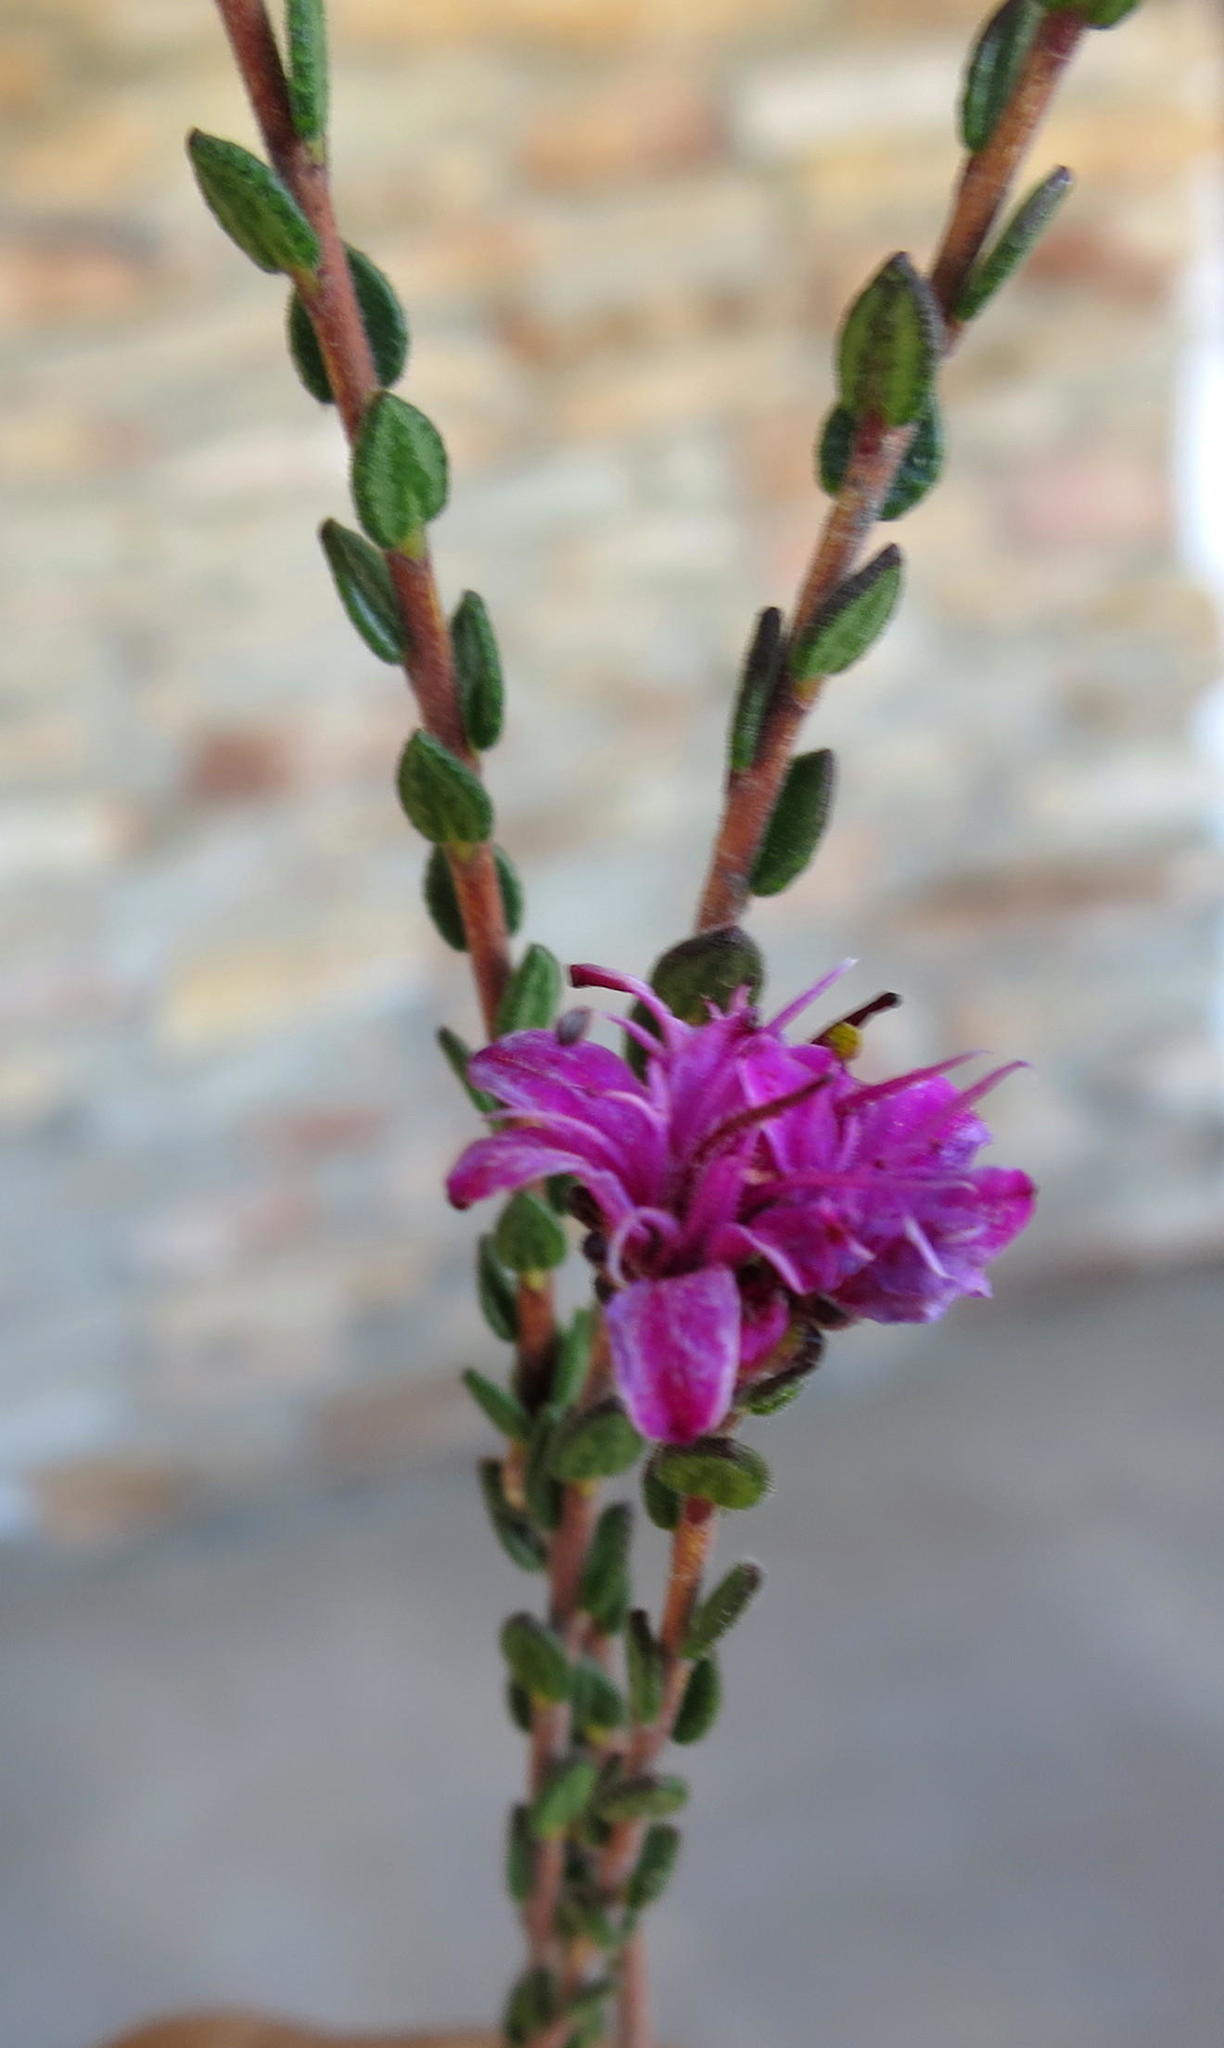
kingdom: Plantae
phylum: Tracheophyta
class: Magnoliopsida
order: Sapindales
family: Rutaceae
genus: Agathosma
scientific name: Agathosma zwartbergense
